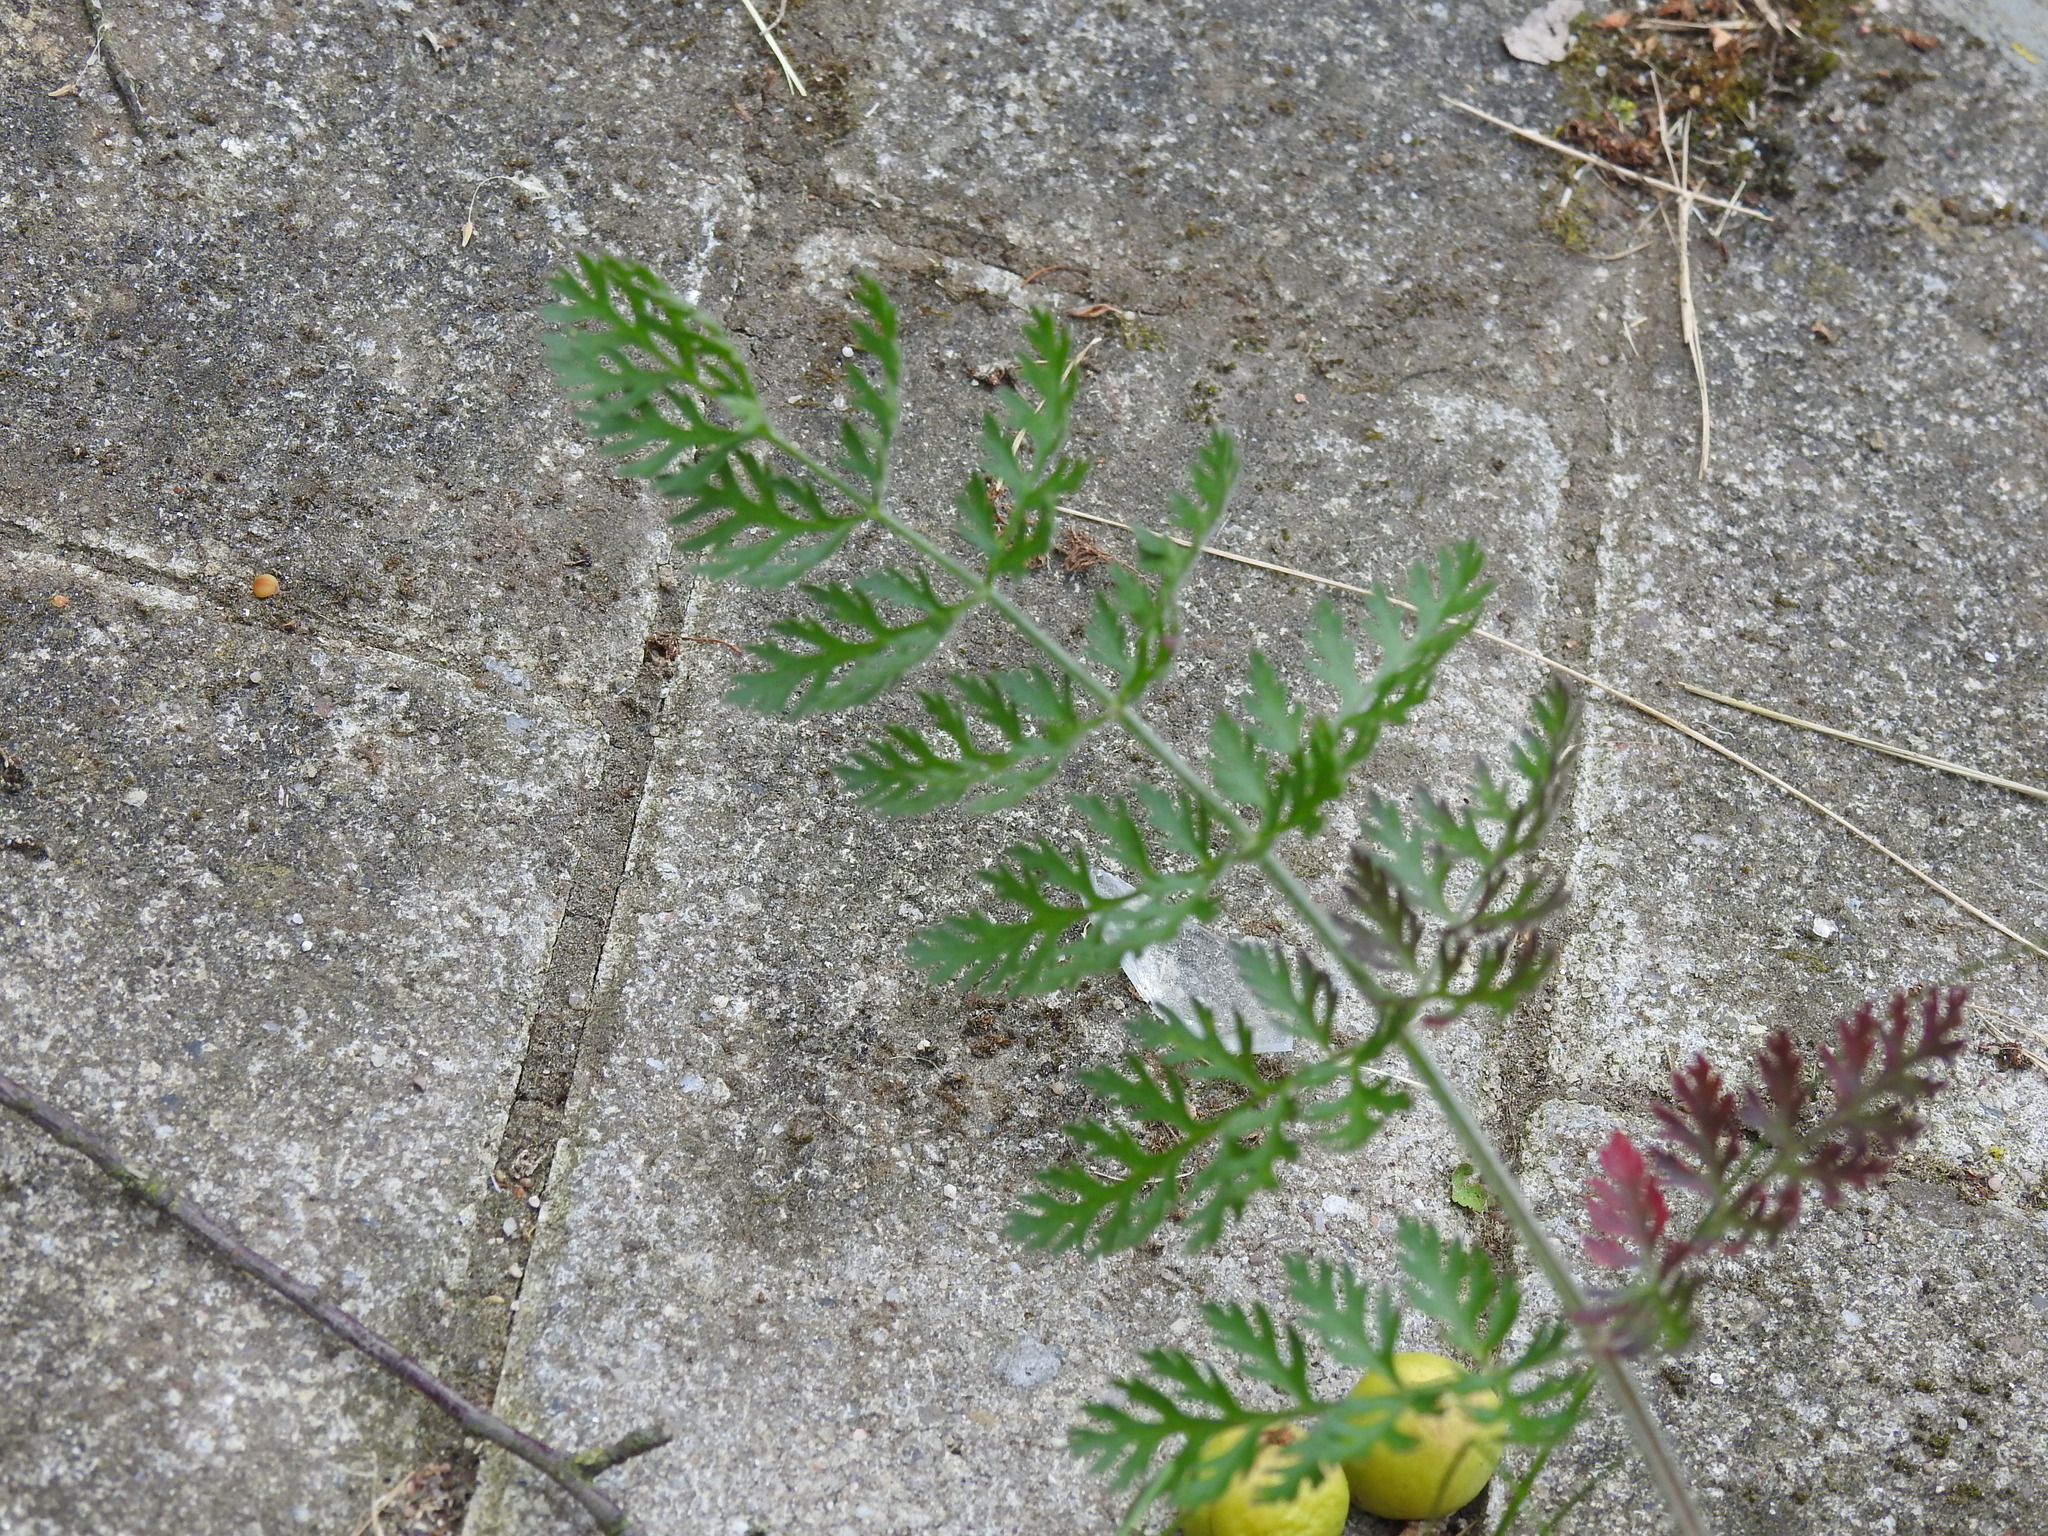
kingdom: Plantae
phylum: Tracheophyta
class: Magnoliopsida
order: Apiales
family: Apiaceae
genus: Daucus
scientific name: Daucus carota
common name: Wild carrot
